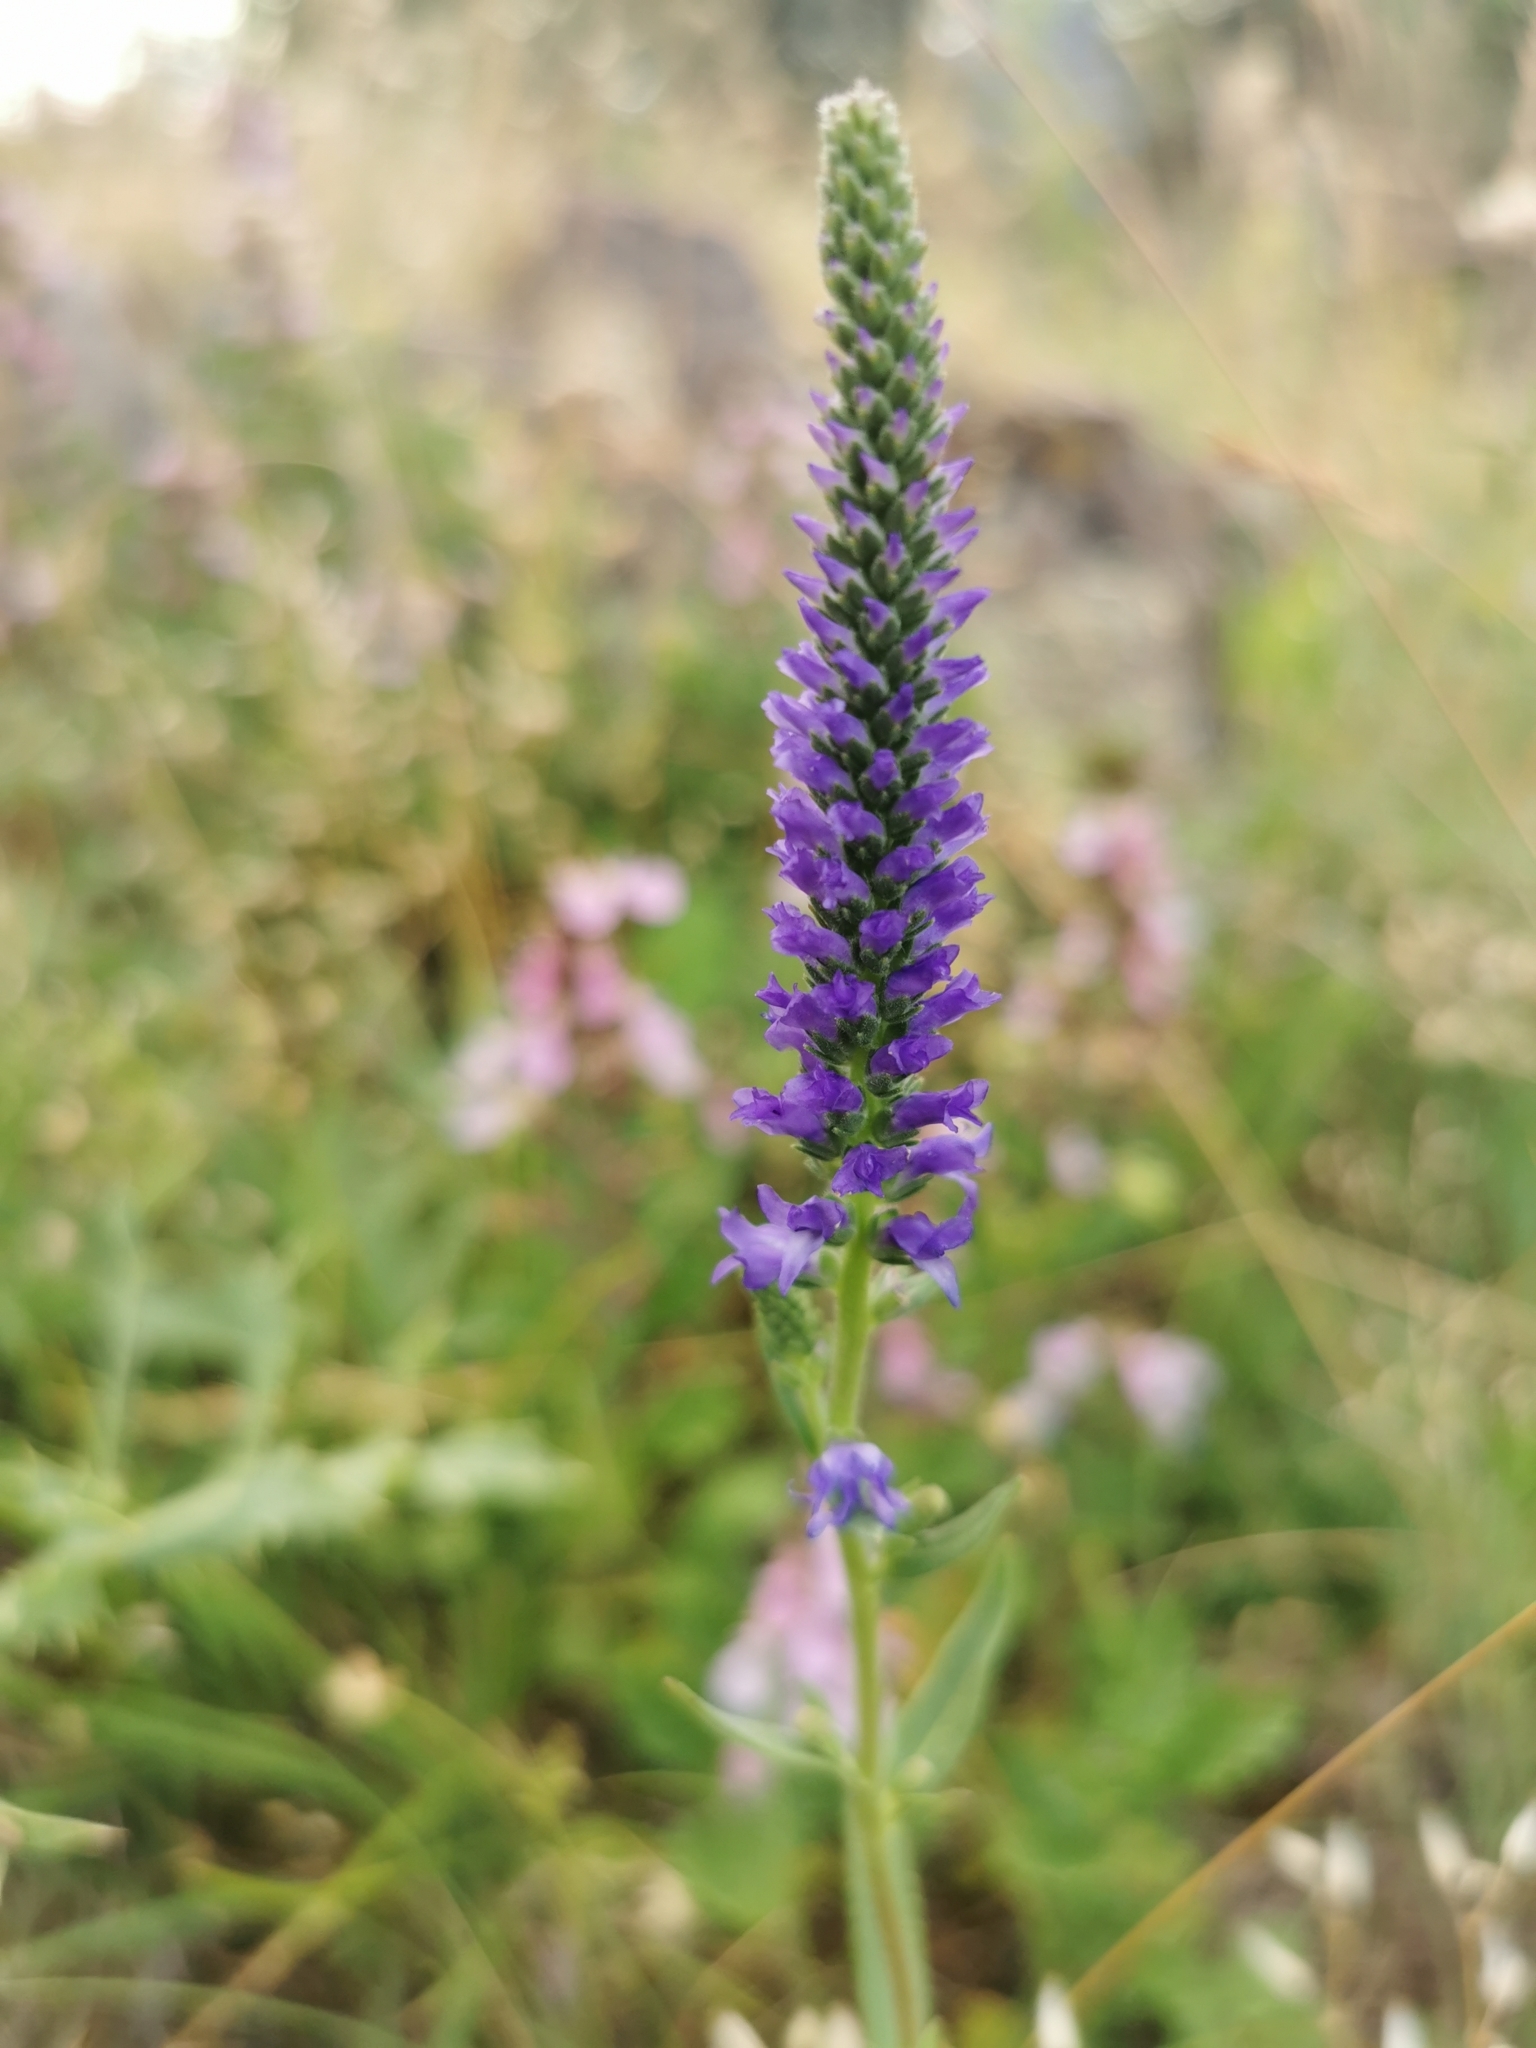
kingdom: Plantae
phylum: Tracheophyta
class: Magnoliopsida
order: Lamiales
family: Plantaginaceae
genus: Veronica
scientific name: Veronica spicata
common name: Spiked speedwell
